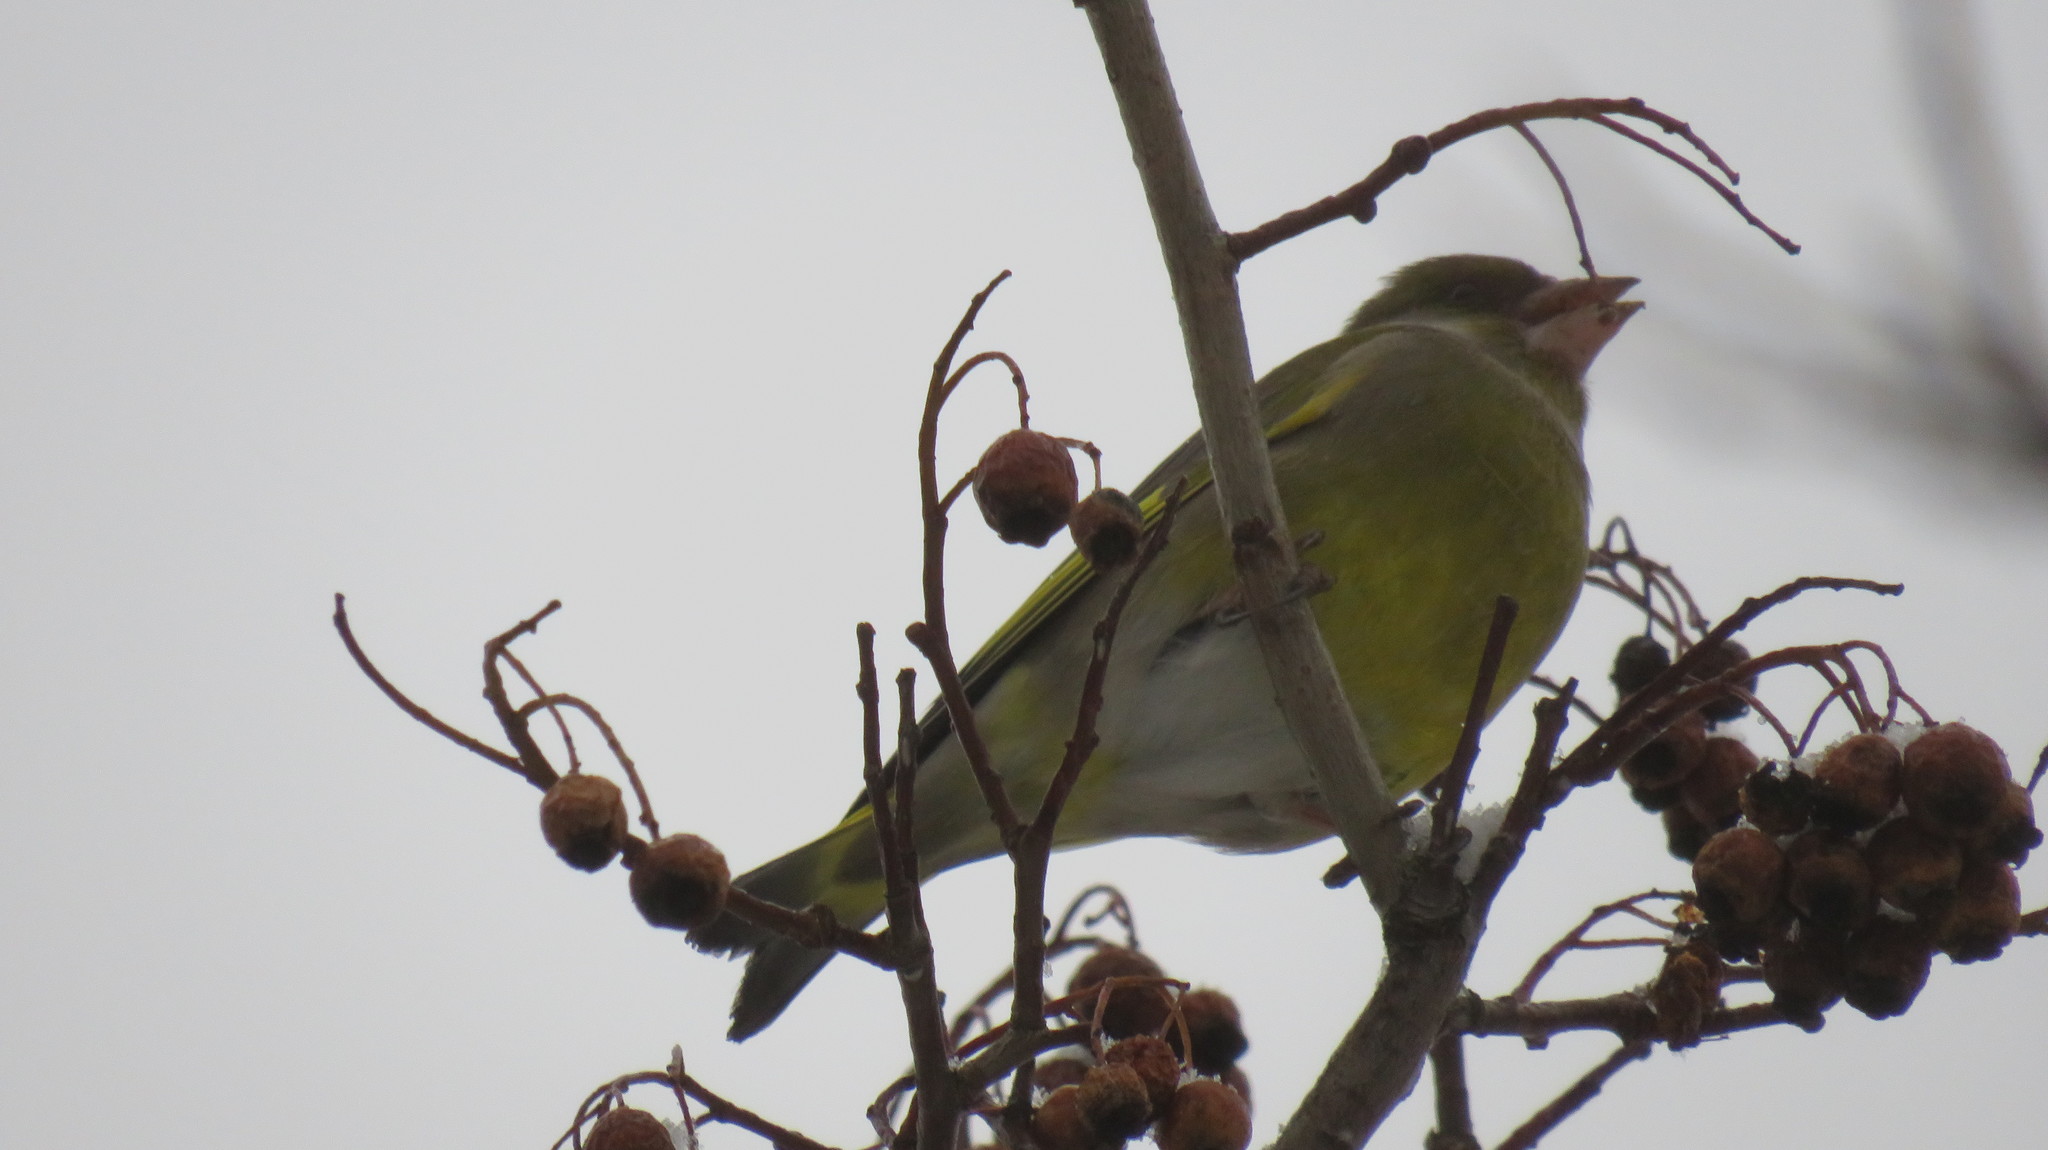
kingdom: Plantae
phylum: Tracheophyta
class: Liliopsida
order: Poales
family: Poaceae
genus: Chloris
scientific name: Chloris chloris
